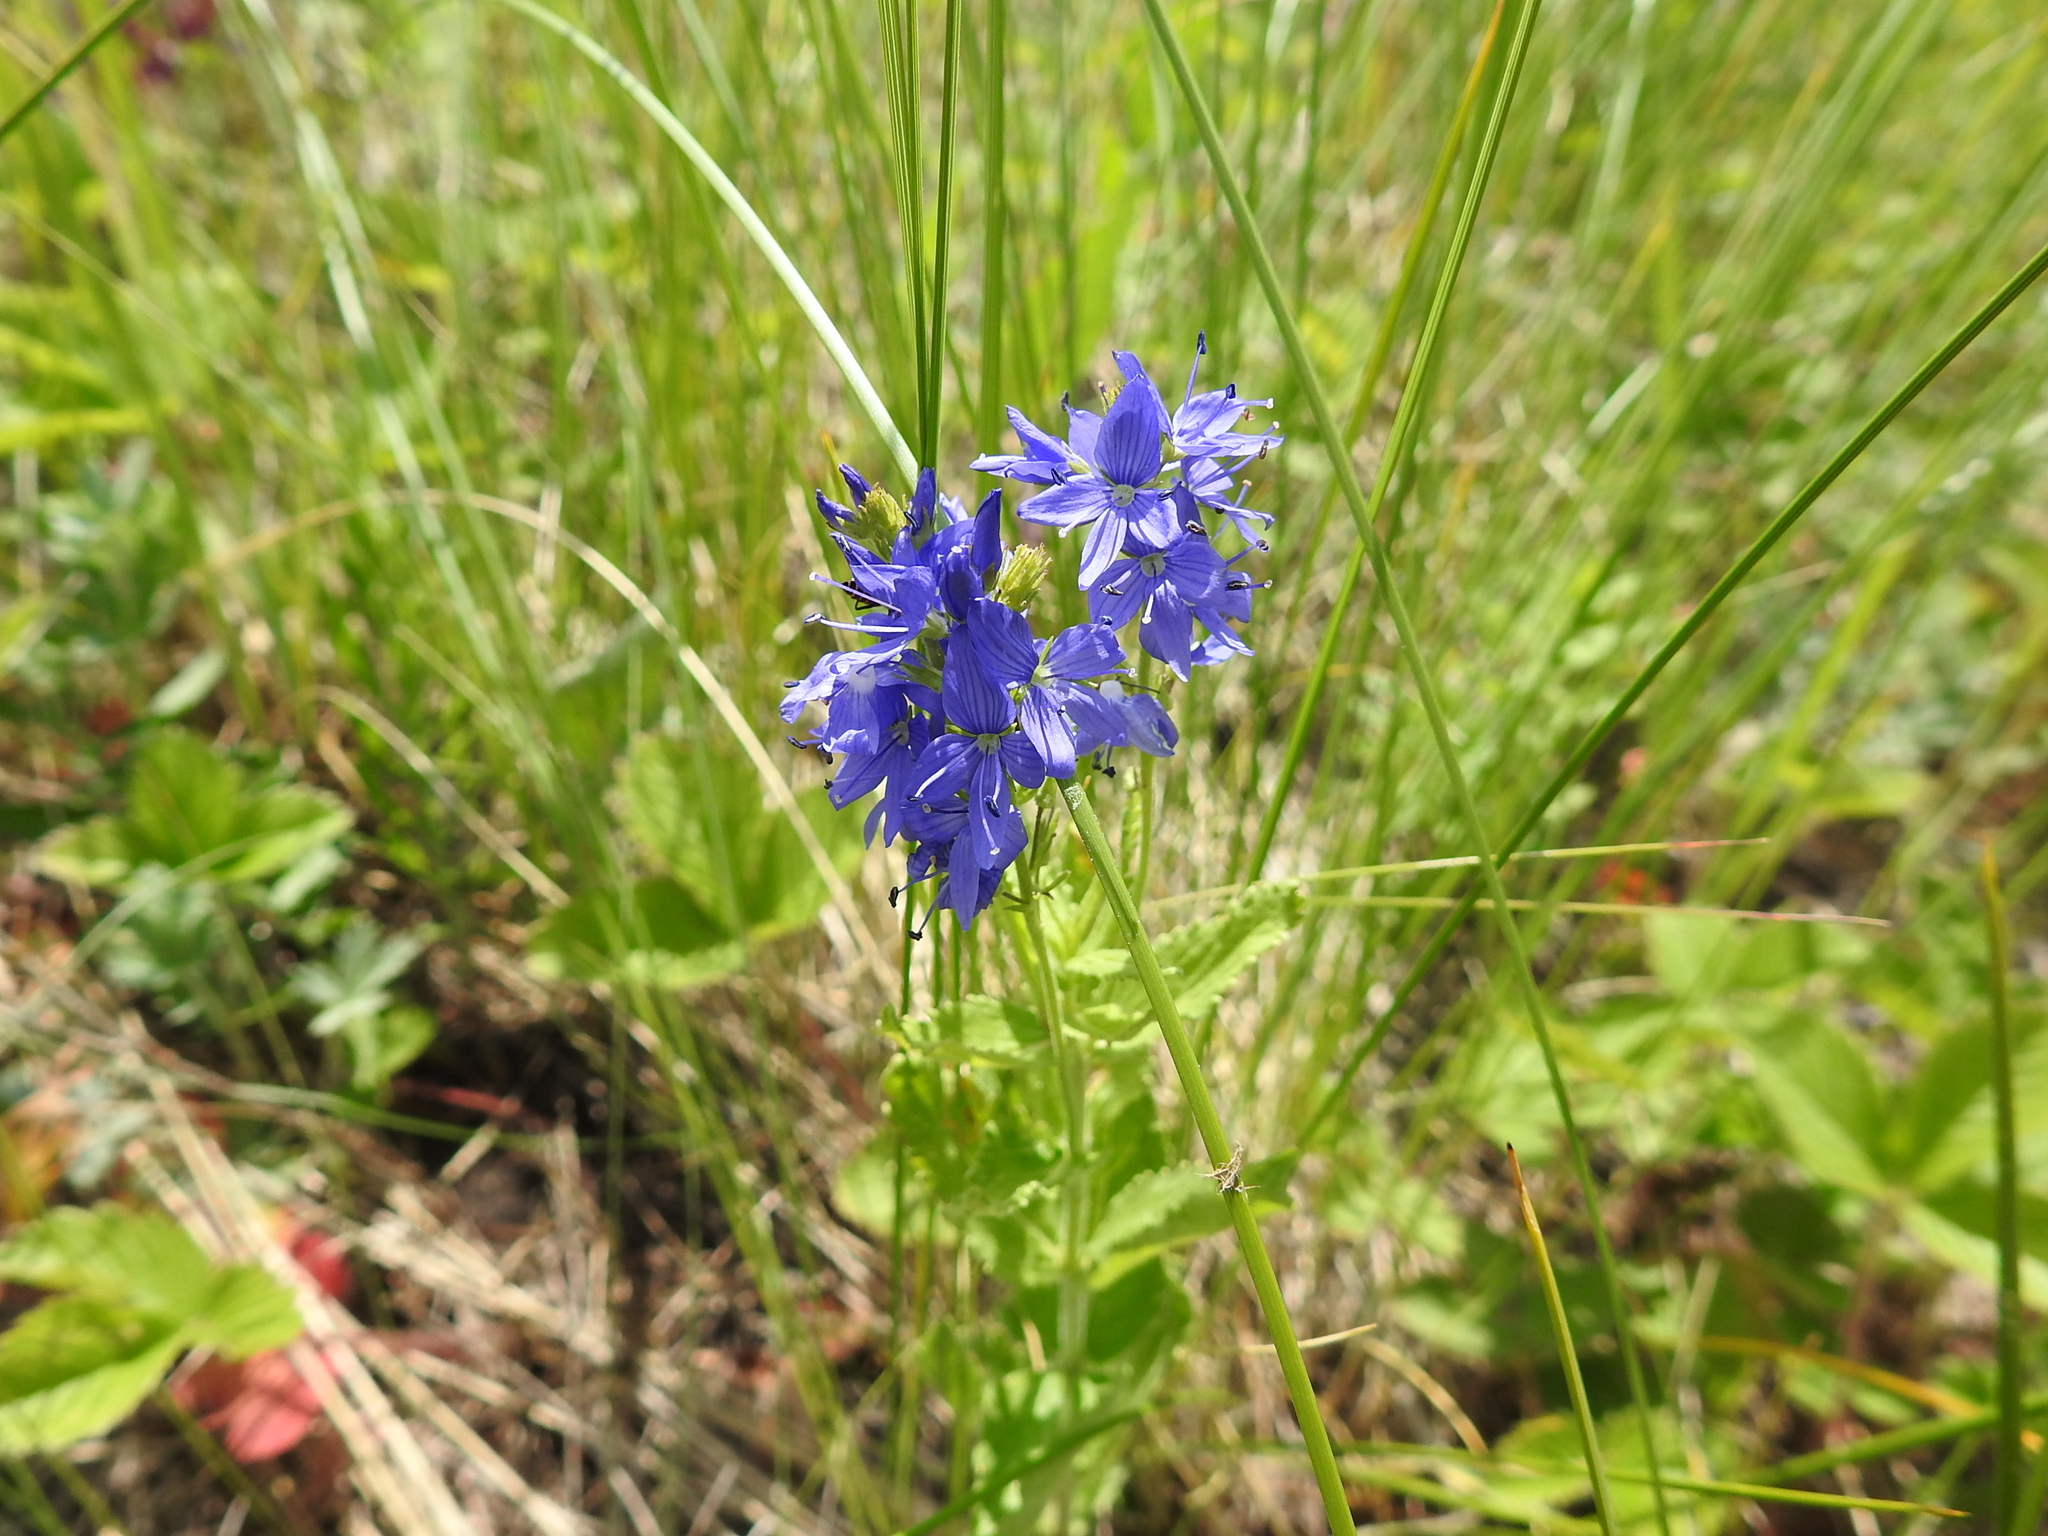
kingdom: Plantae
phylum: Tracheophyta
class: Magnoliopsida
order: Lamiales
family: Plantaginaceae
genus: Veronica
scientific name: Veronica teucrium
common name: Large speedwell
